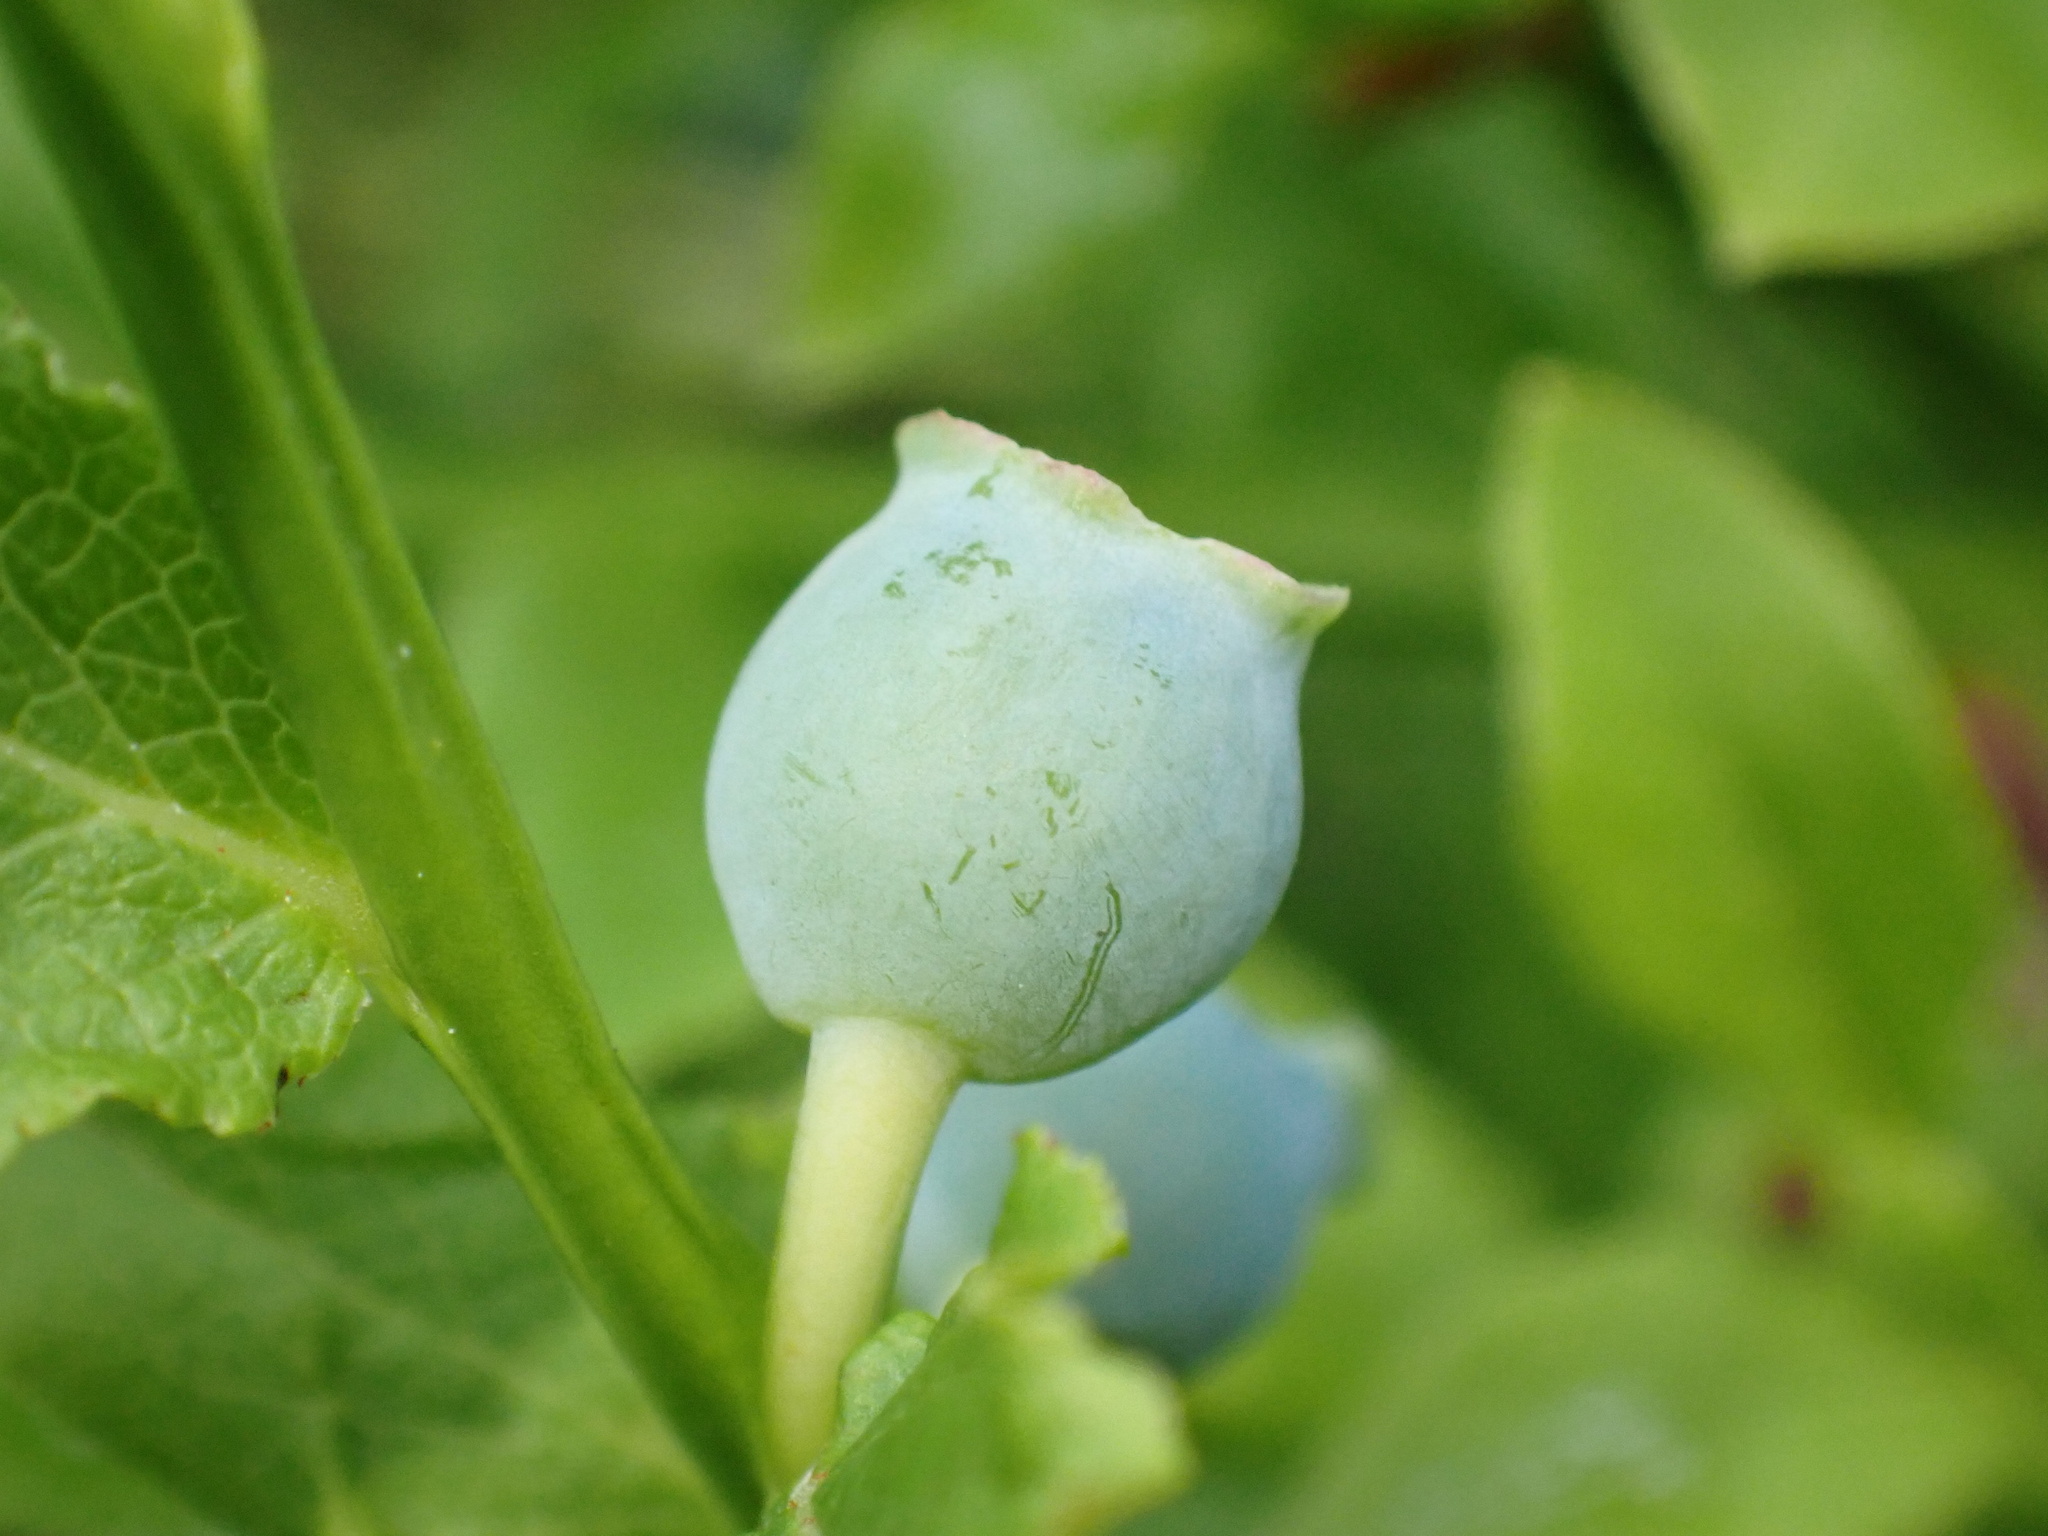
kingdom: Plantae
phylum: Tracheophyta
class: Magnoliopsida
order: Ericales
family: Ericaceae
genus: Vaccinium
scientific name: Vaccinium myrtillus
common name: Bilberry
